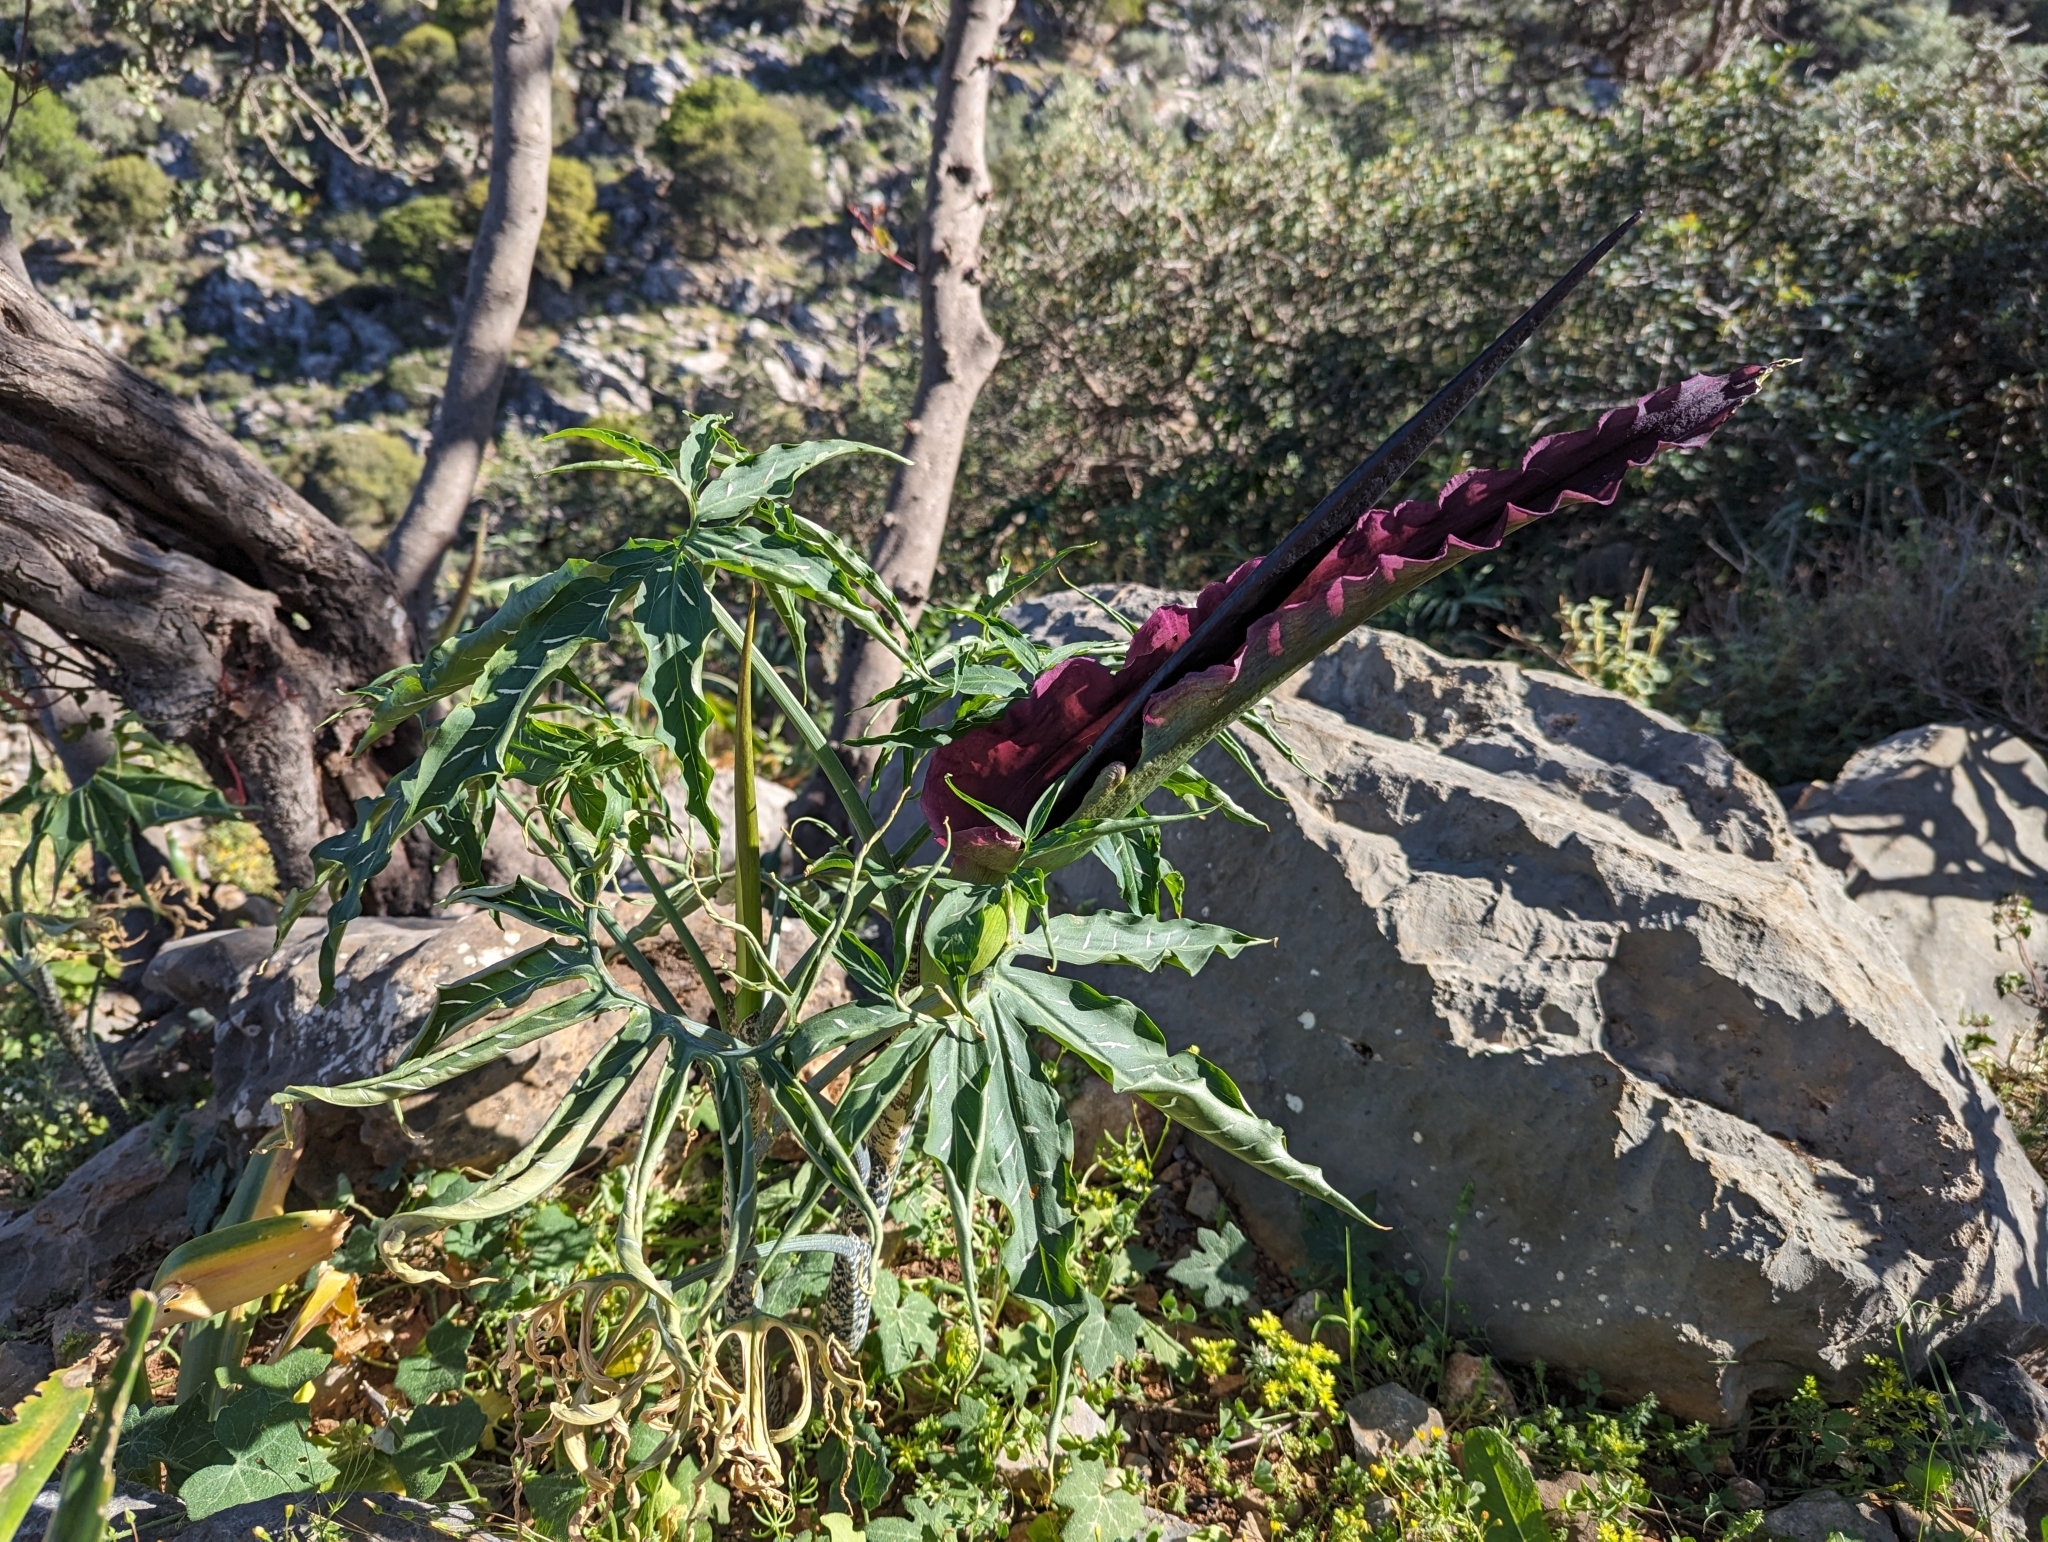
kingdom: Plantae
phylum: Tracheophyta
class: Liliopsida
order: Alismatales
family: Araceae
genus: Dracunculus
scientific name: Dracunculus vulgaris
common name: Dragon arum
